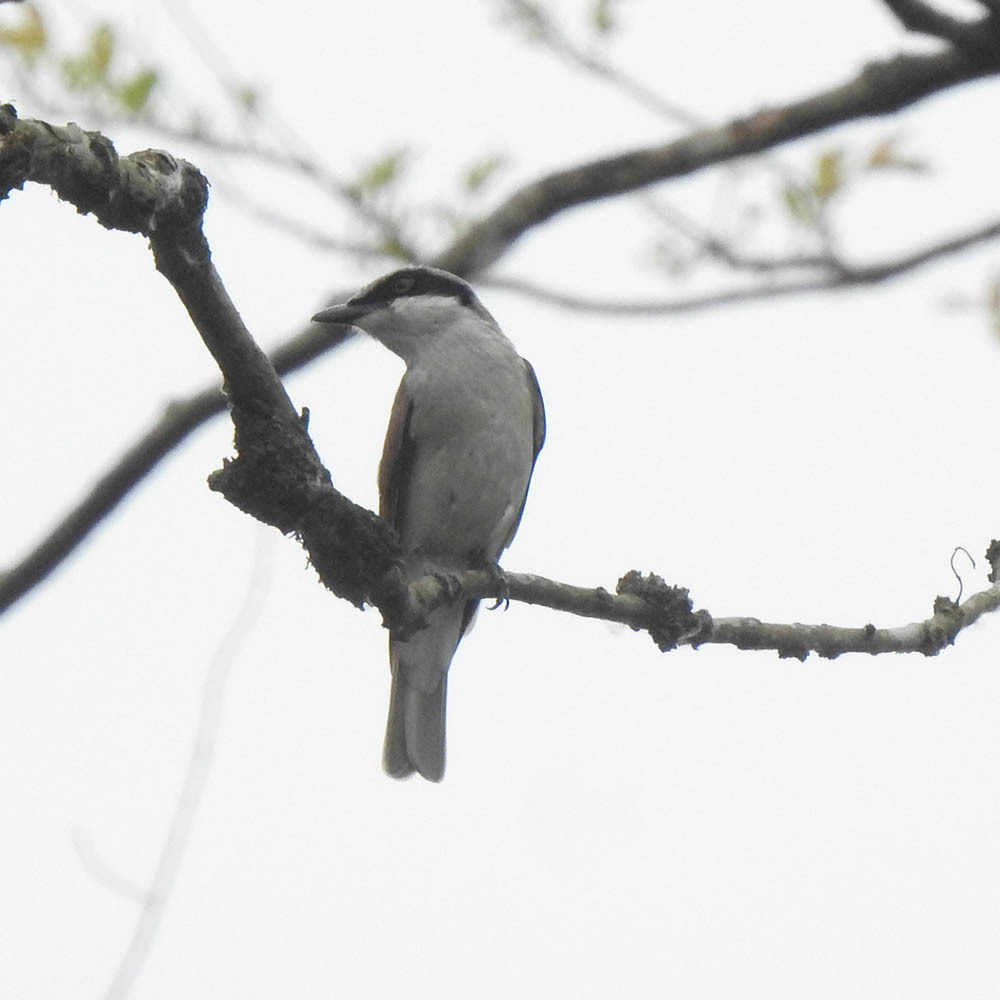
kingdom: Animalia
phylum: Chordata
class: Aves
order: Passeriformes
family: Tephrodornithidae
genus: Tephrodornis
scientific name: Tephrodornis virgatus
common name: Large woodshrike
